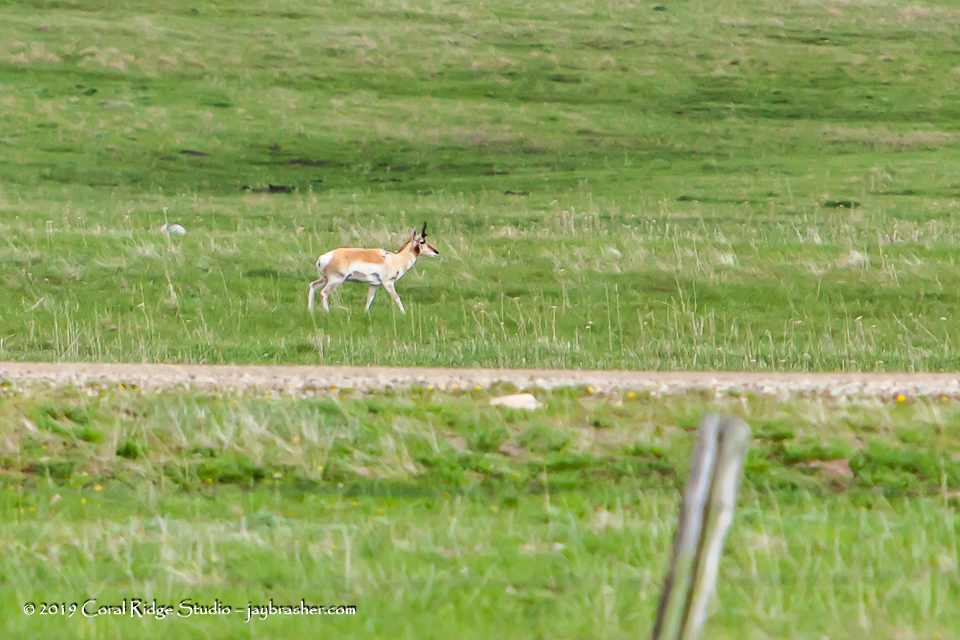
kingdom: Animalia
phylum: Chordata
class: Mammalia
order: Artiodactyla
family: Antilocapridae
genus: Antilocapra
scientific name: Antilocapra americana
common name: Pronghorn
